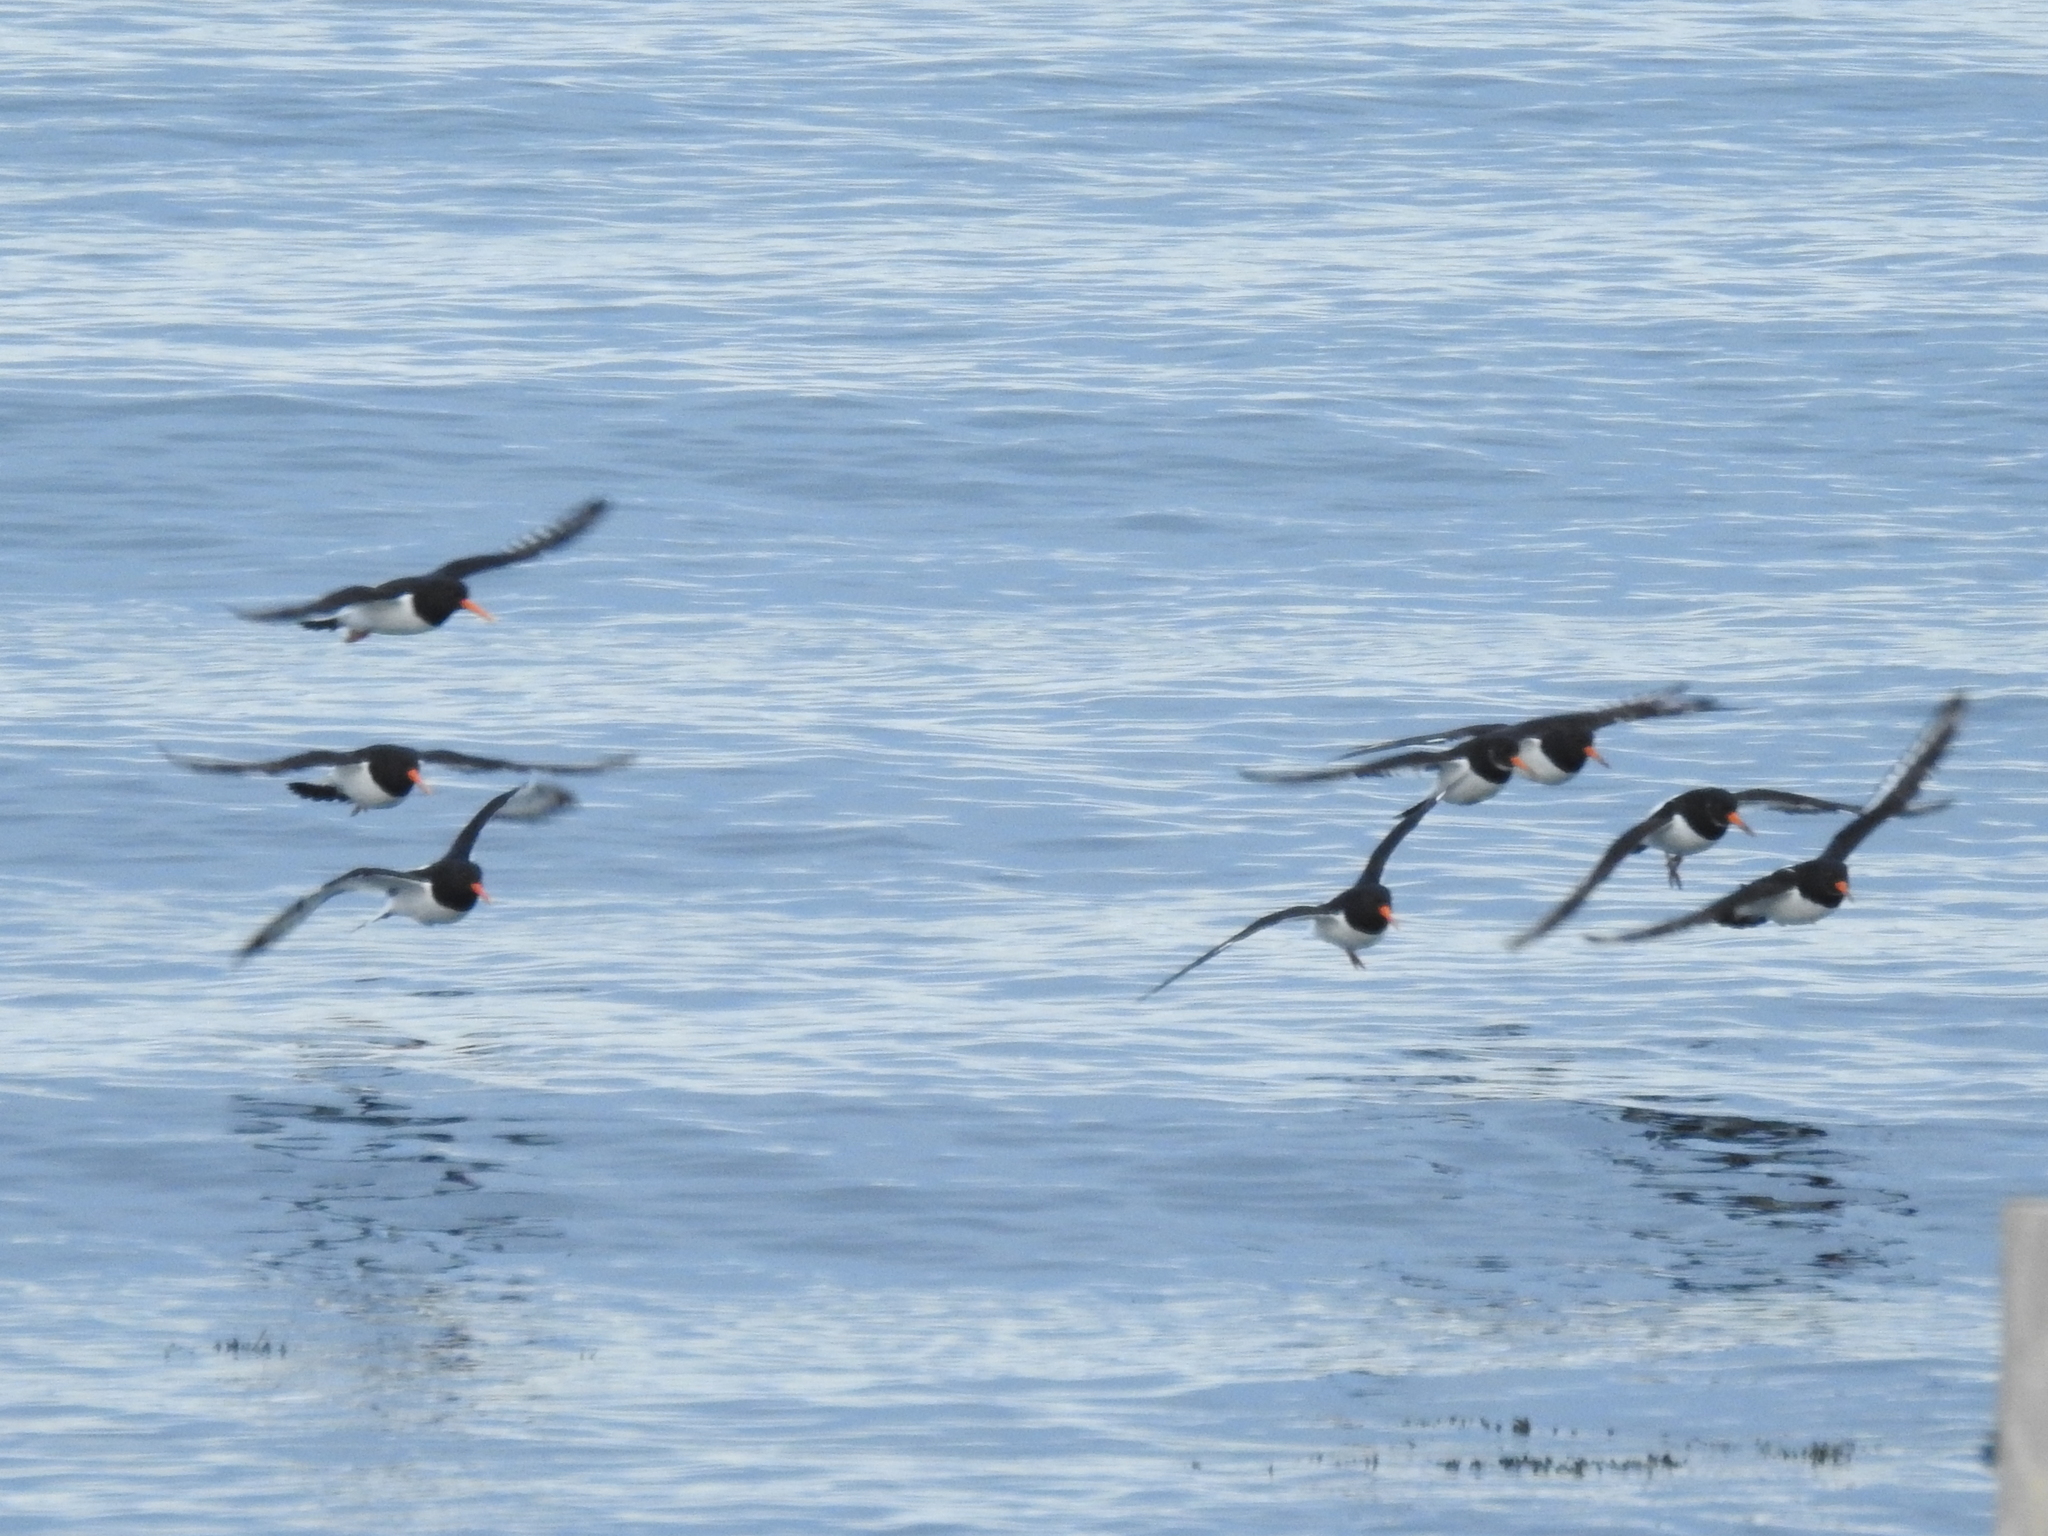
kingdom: Animalia
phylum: Chordata
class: Aves
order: Charadriiformes
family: Haematopodidae
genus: Haematopus
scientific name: Haematopus ostralegus
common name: Eurasian oystercatcher
